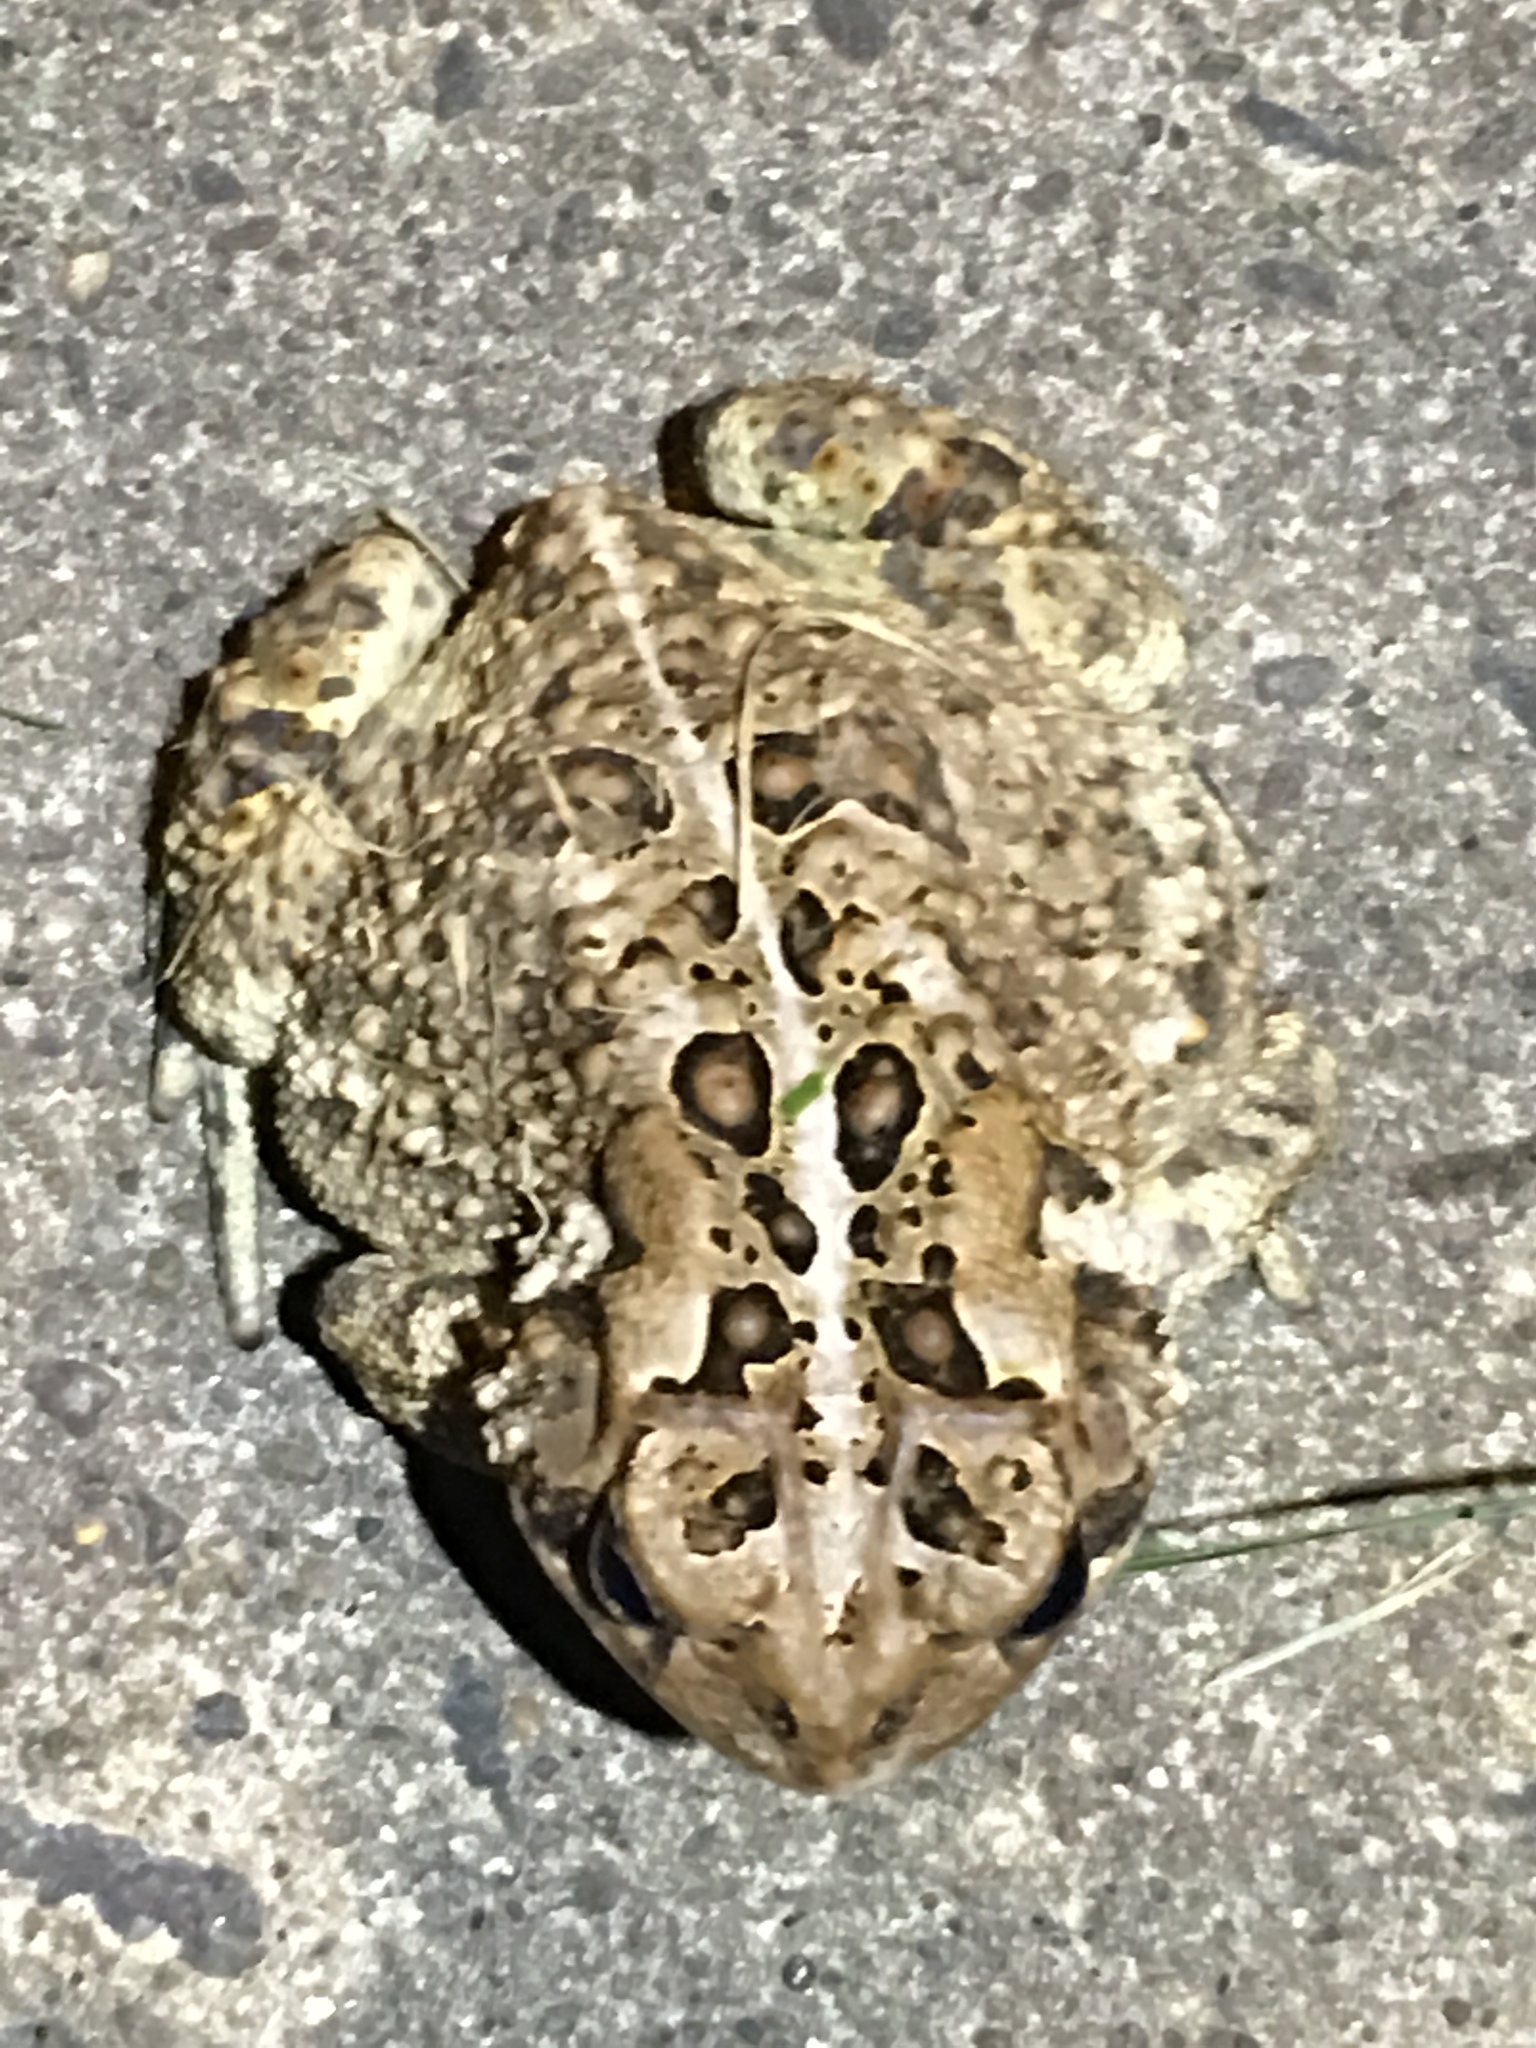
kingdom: Animalia
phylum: Chordata
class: Amphibia
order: Anura
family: Bufonidae
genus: Anaxyrus
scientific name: Anaxyrus americanus
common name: American toad
